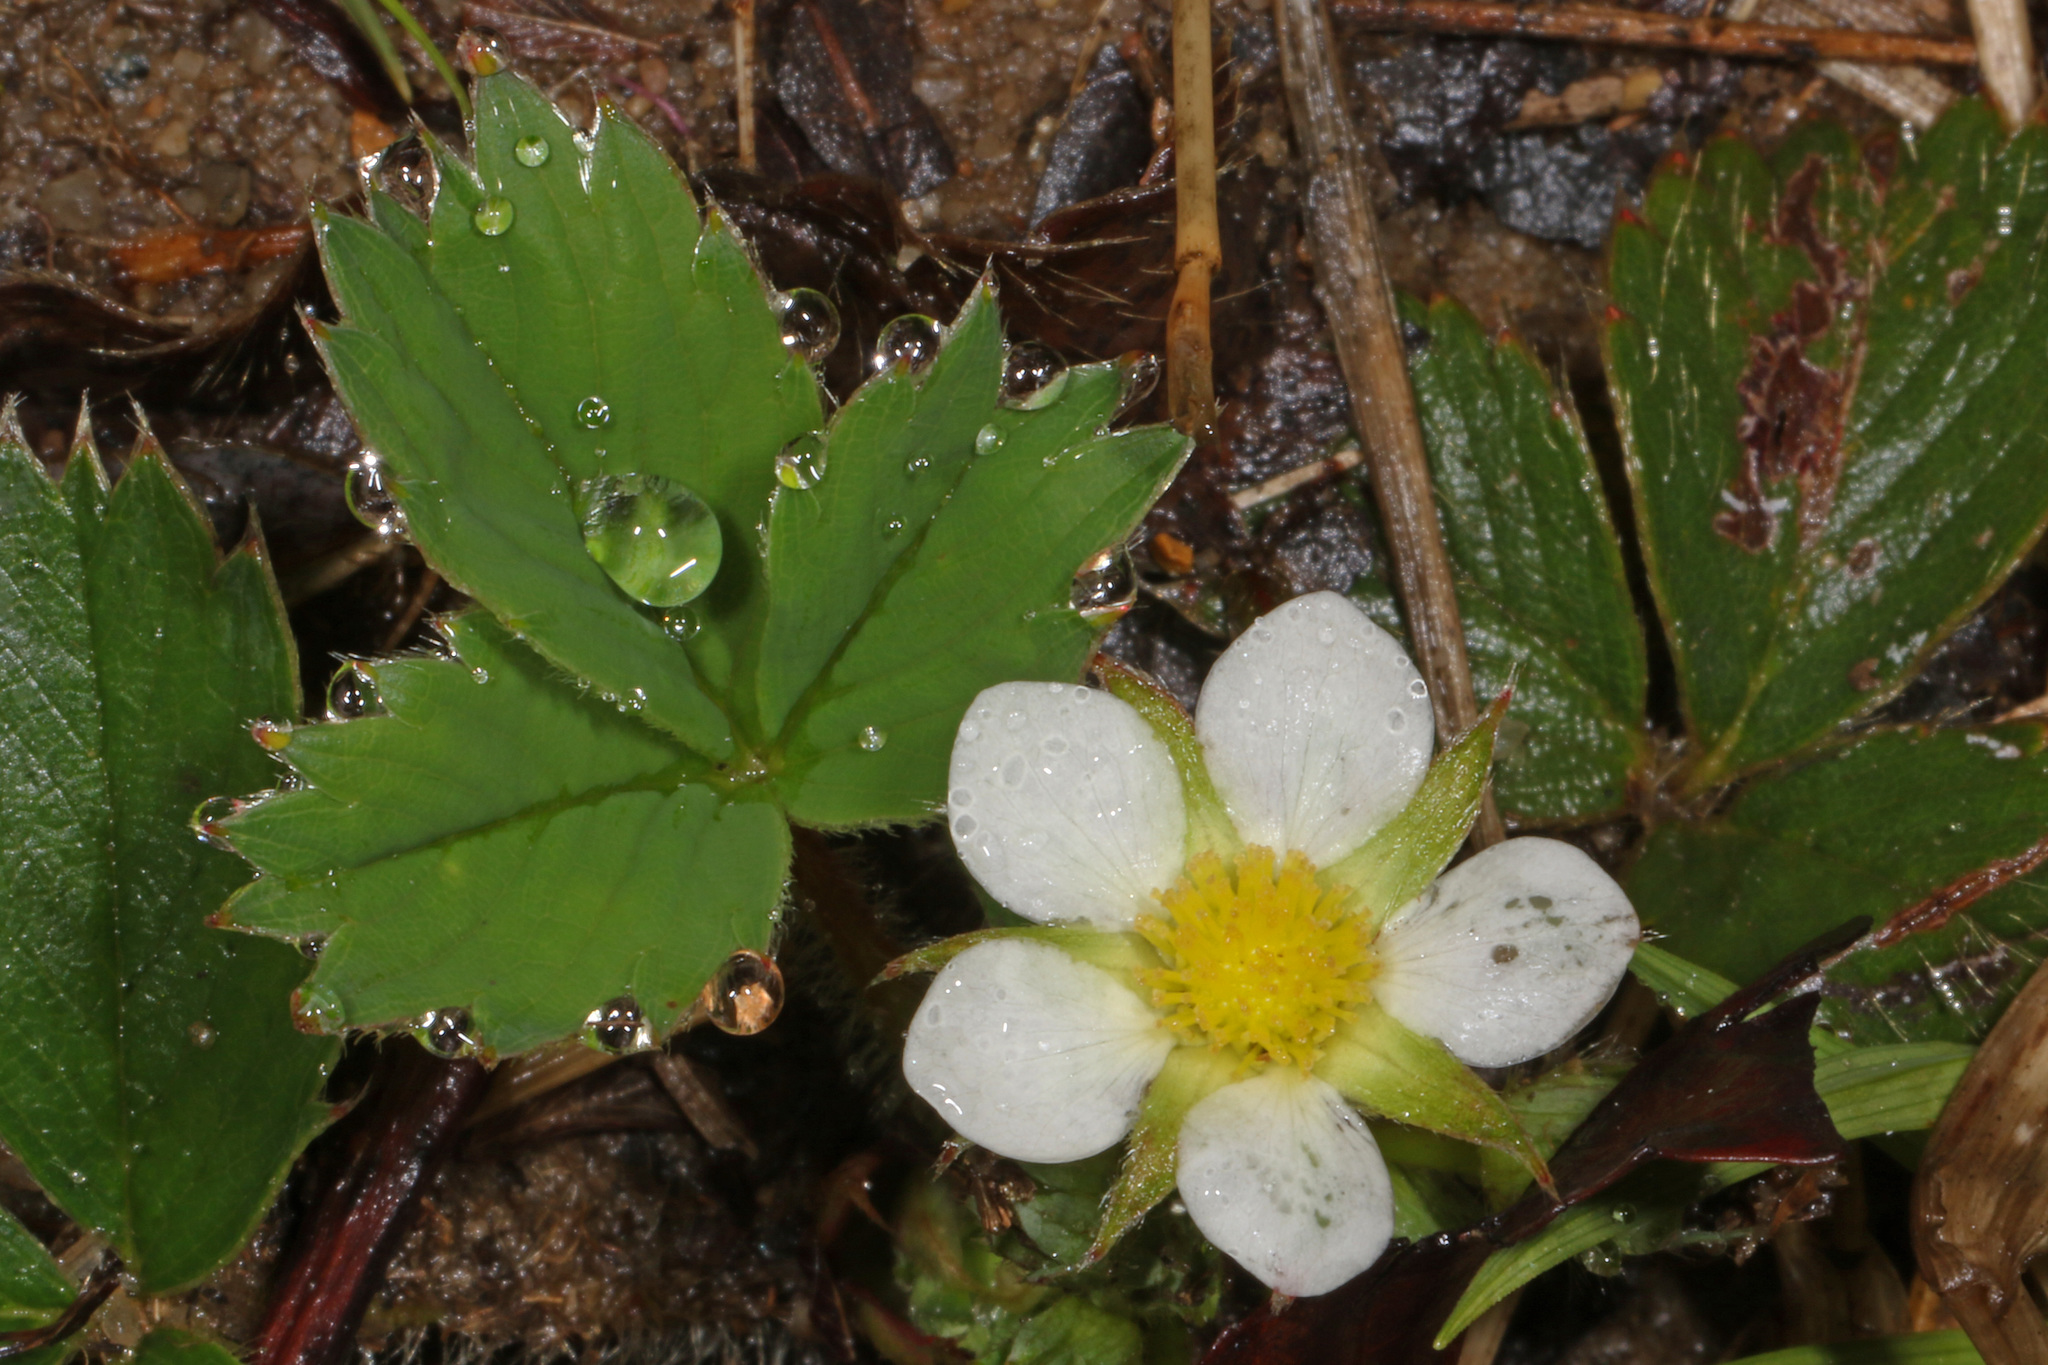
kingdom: Plantae
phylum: Tracheophyta
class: Magnoliopsida
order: Rosales
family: Rosaceae
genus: Fragaria
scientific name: Fragaria virginiana
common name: Thickleaved wild strawberry
